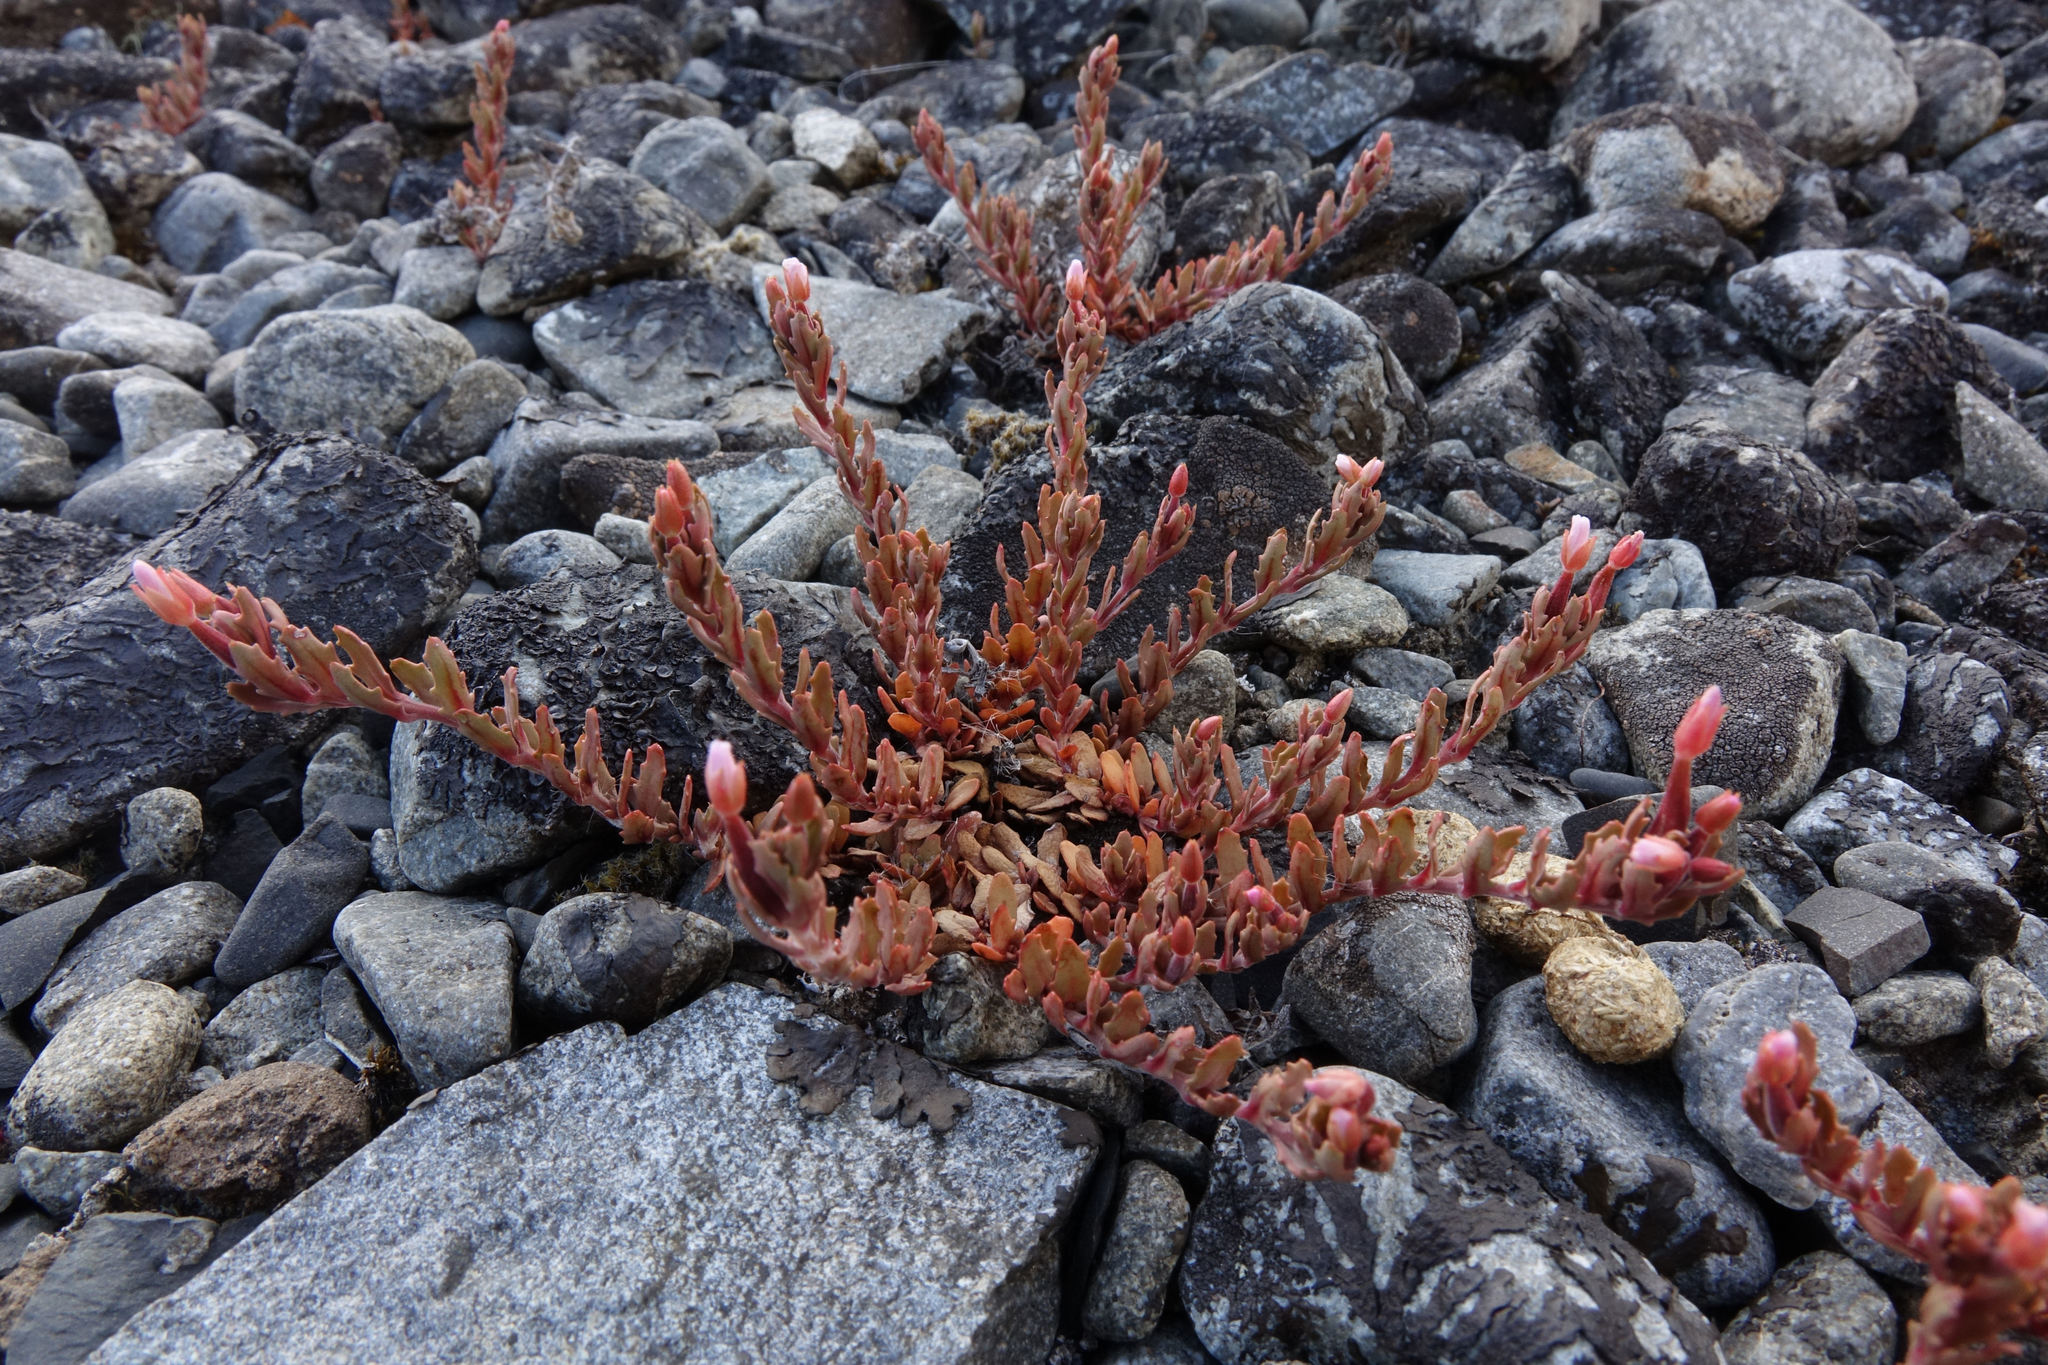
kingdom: Plantae
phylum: Tracheophyta
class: Magnoliopsida
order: Myrtales
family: Onagraceae
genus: Epilobium
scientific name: Epilobium rostratum
